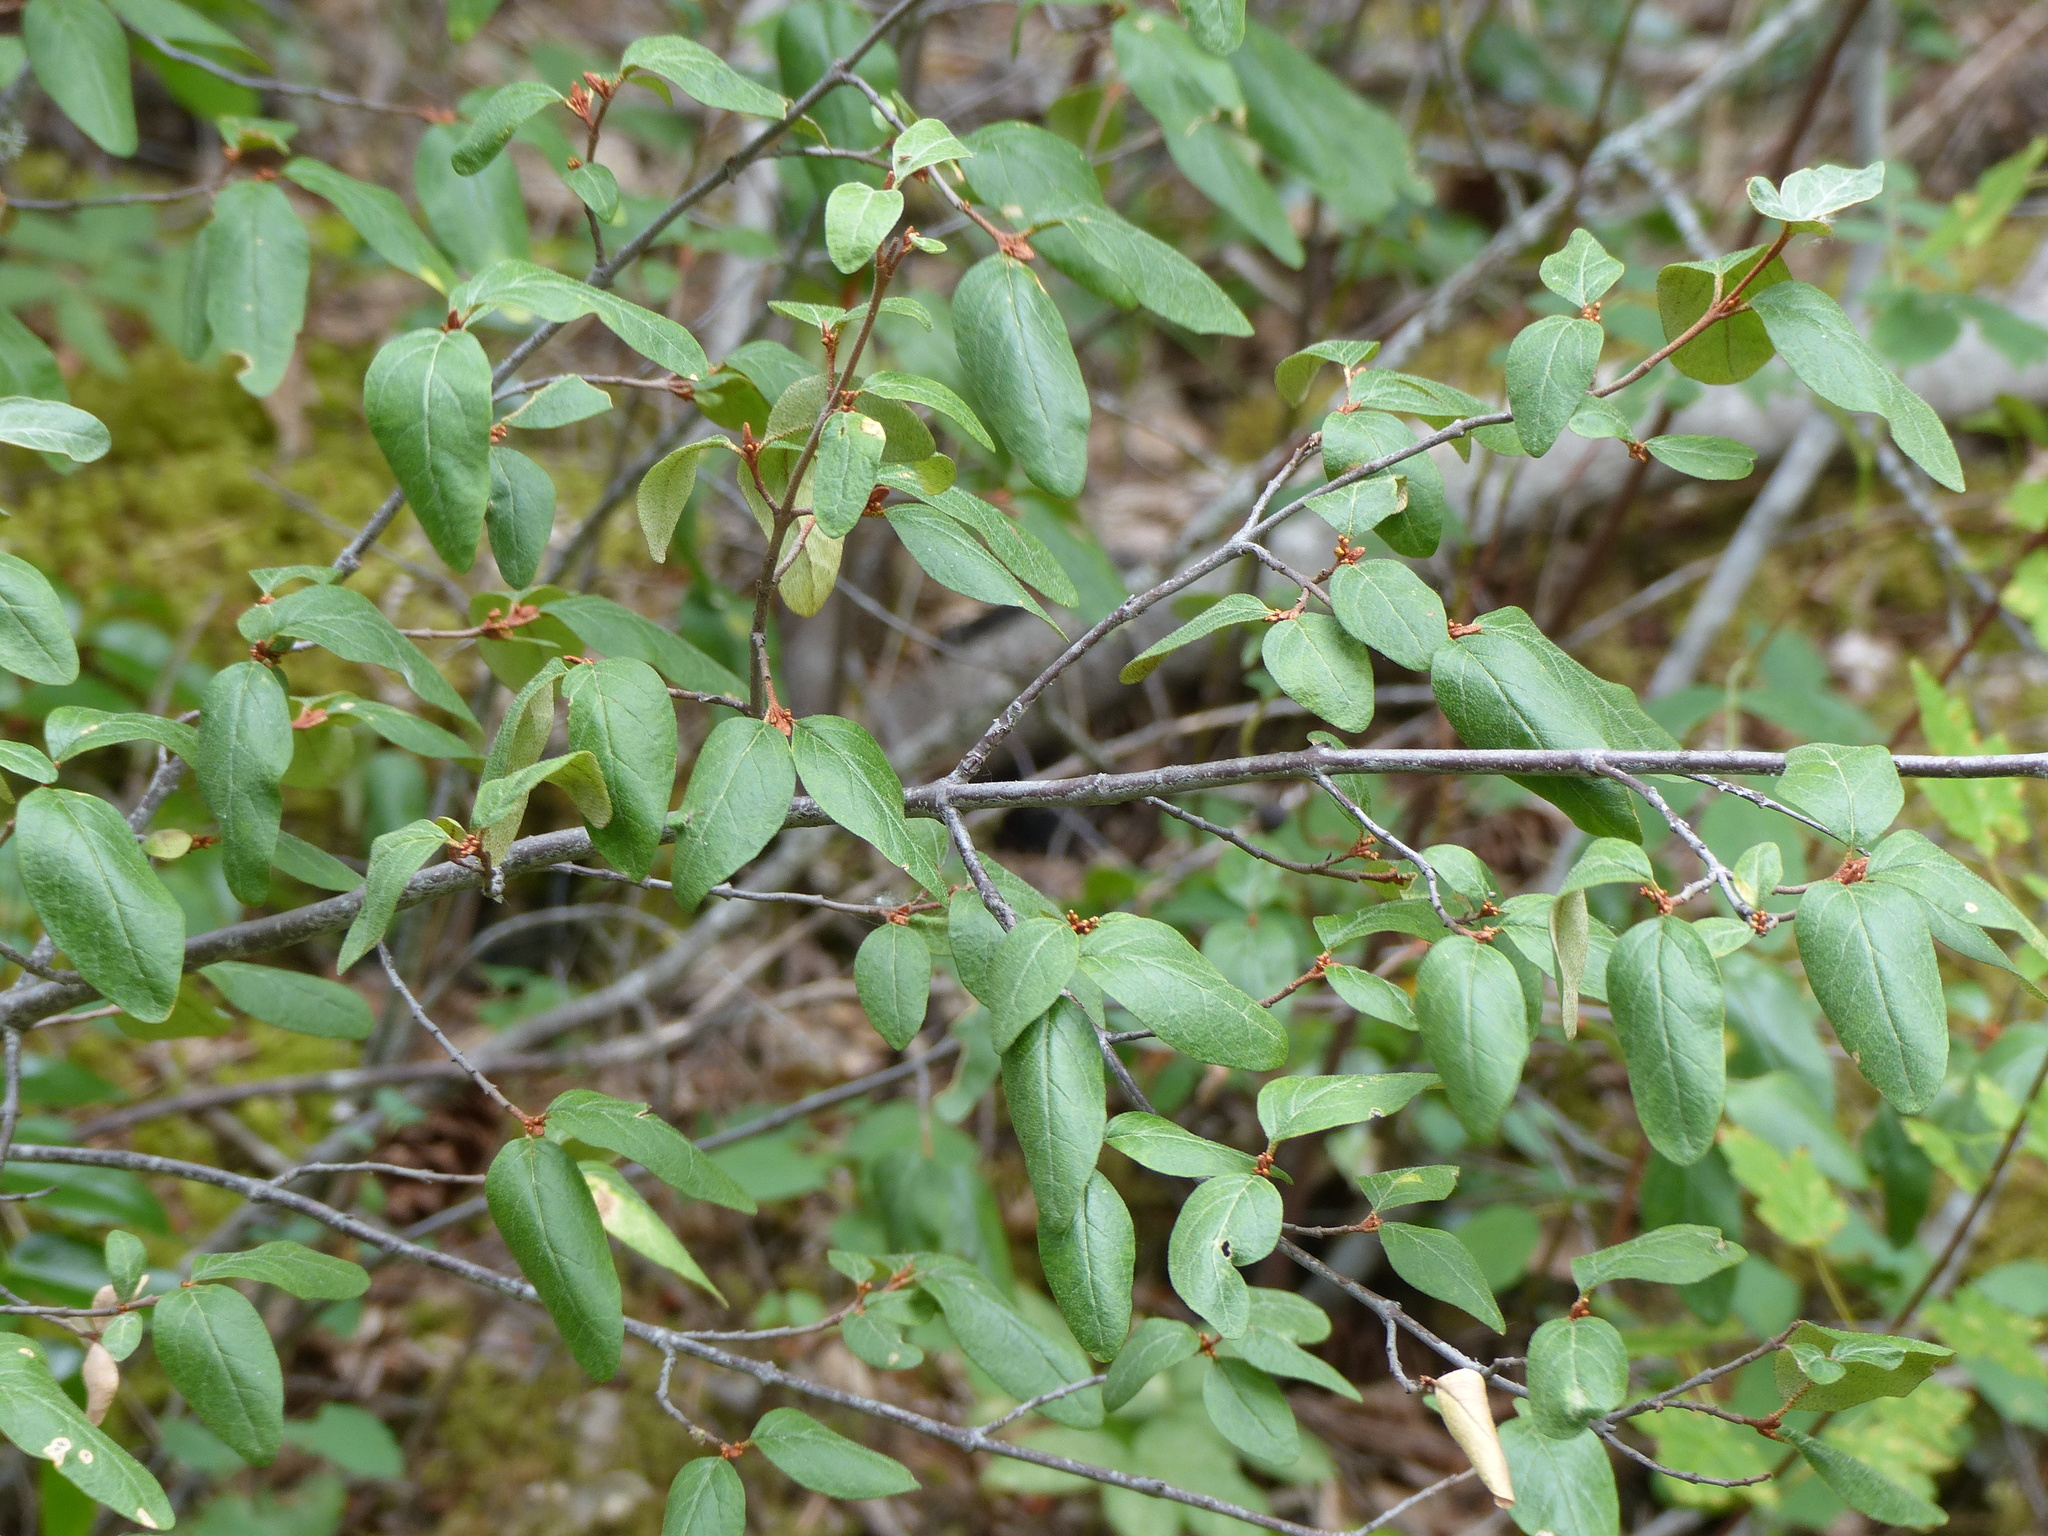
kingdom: Plantae
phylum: Tracheophyta
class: Magnoliopsida
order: Rosales
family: Elaeagnaceae
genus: Shepherdia
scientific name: Shepherdia canadensis
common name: Soapberry
